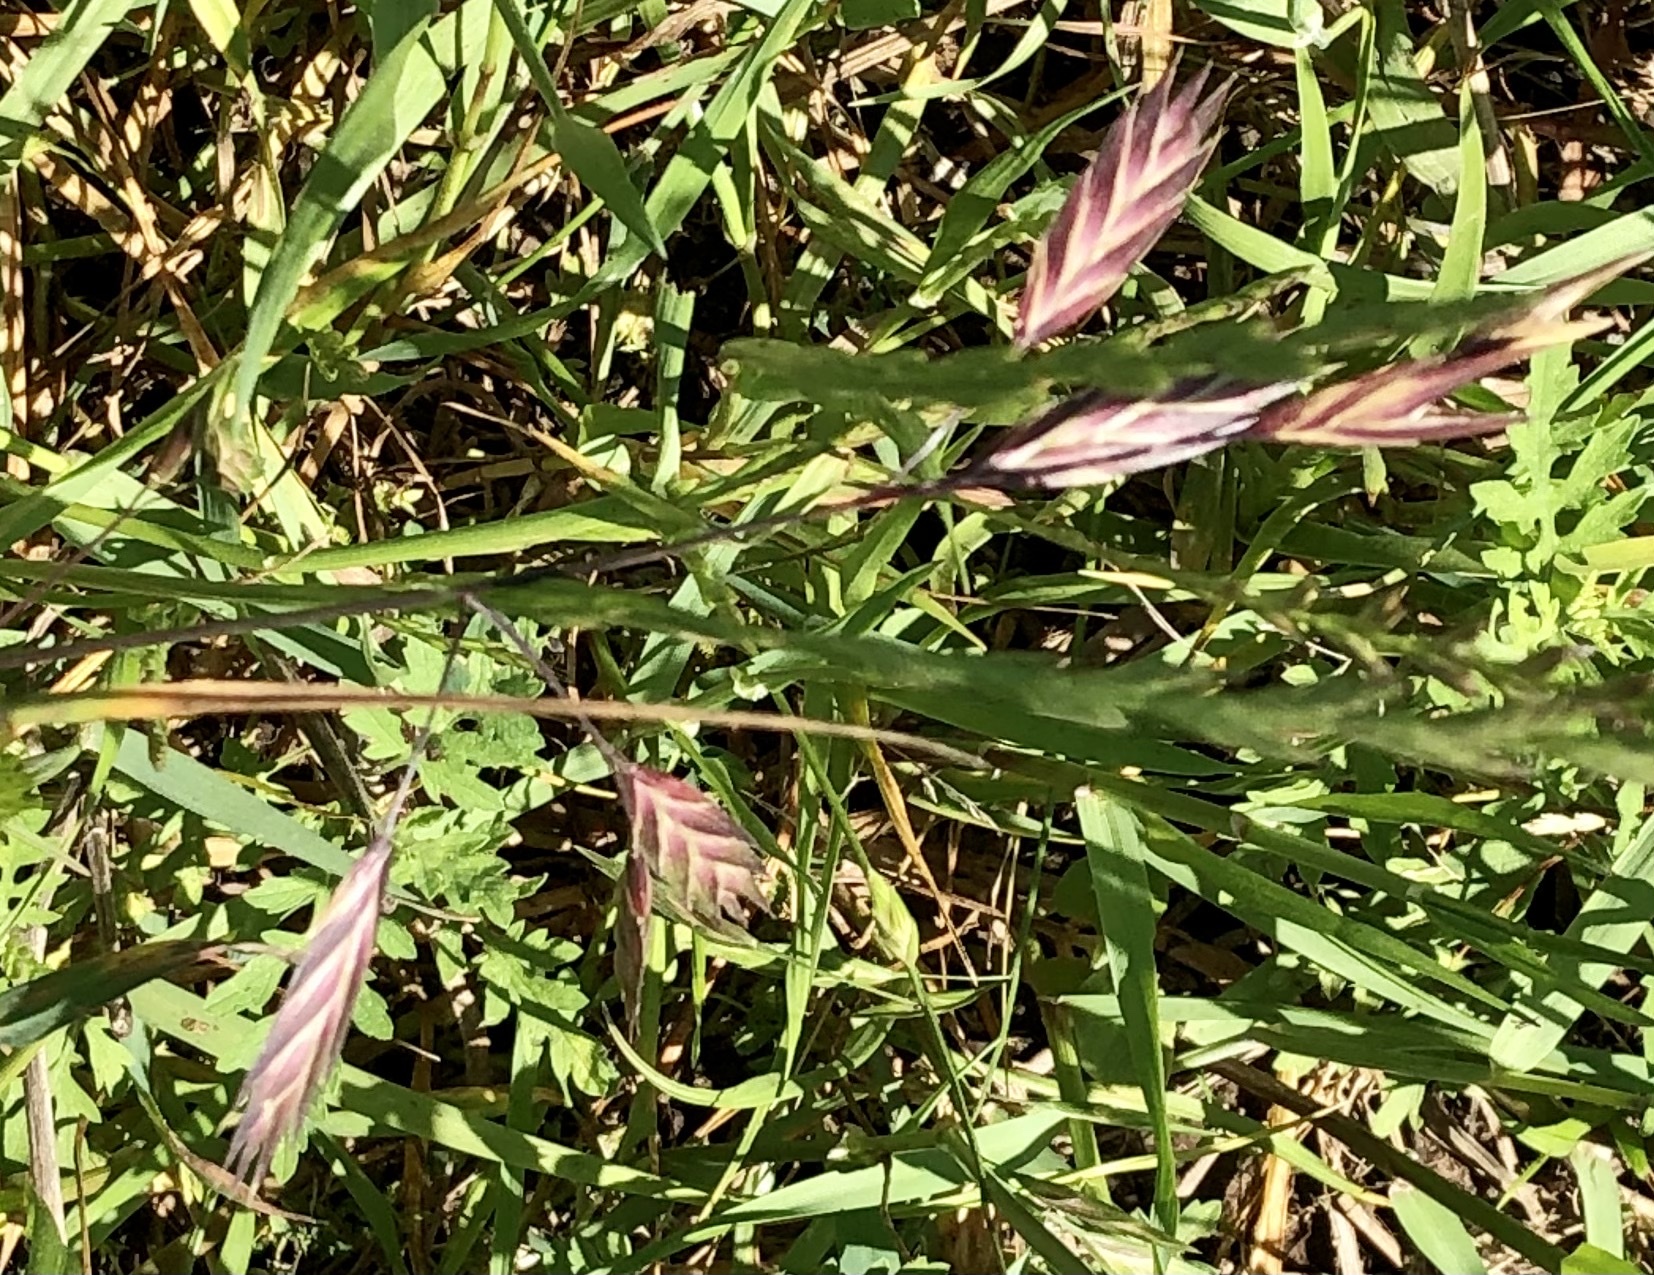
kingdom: Plantae
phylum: Tracheophyta
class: Liliopsida
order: Poales
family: Poaceae
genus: Bromus
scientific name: Bromus catharticus
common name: Rescuegrass
